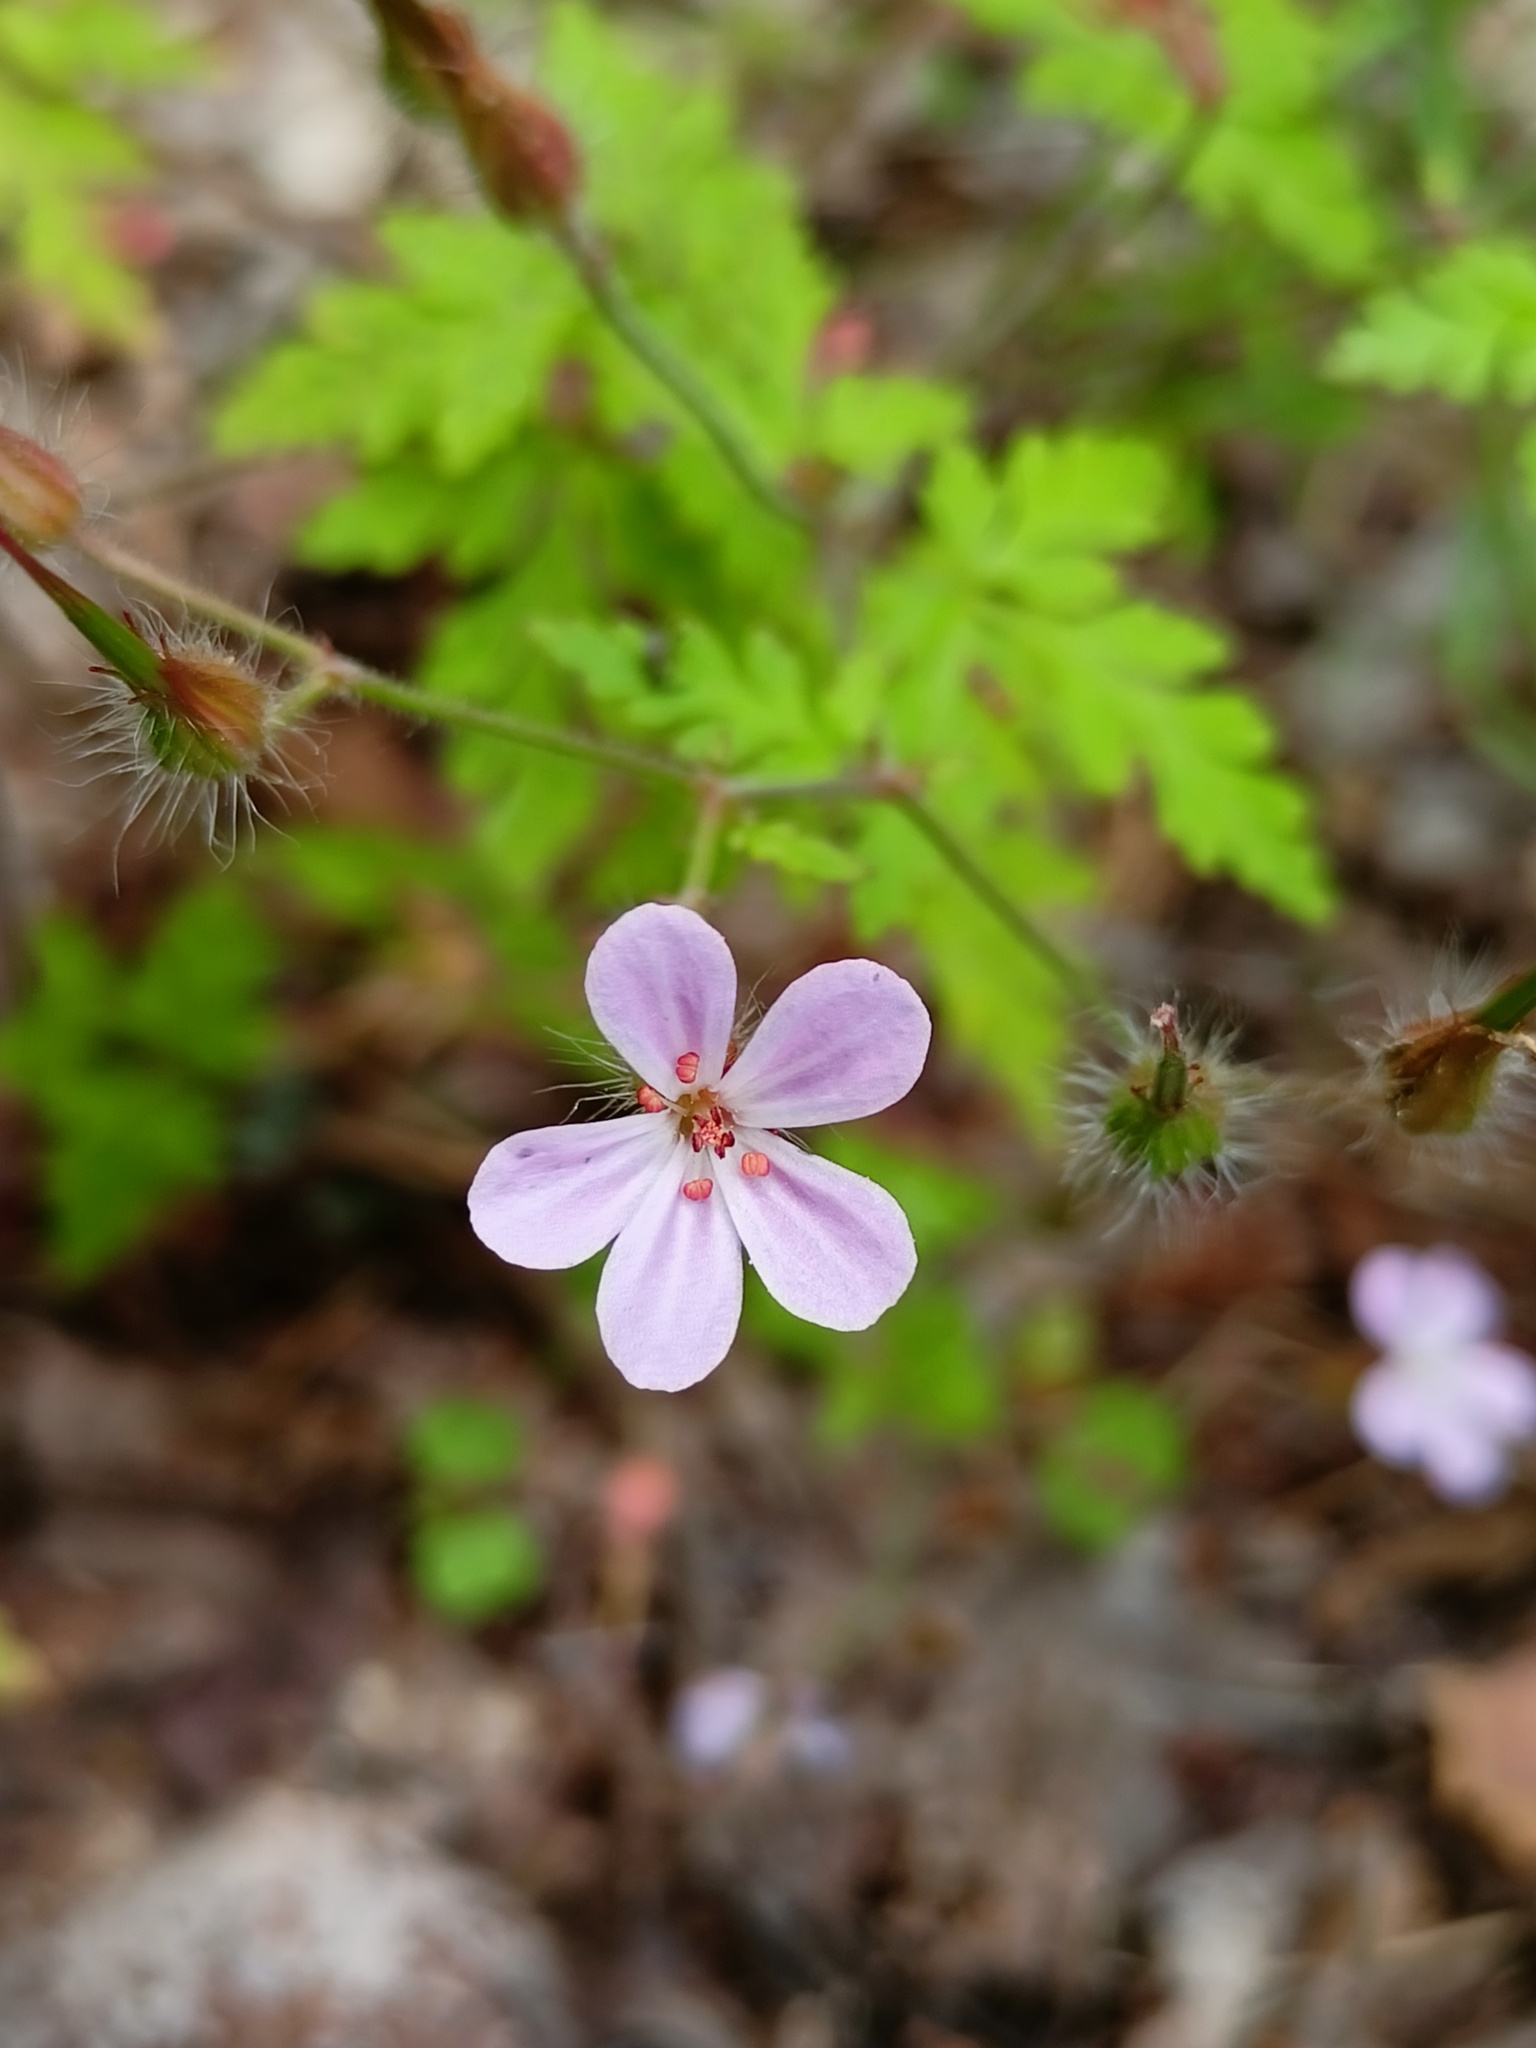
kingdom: Plantae
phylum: Tracheophyta
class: Magnoliopsida
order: Geraniales
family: Geraniaceae
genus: Geranium
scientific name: Geranium robertianum
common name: Herb-robert
